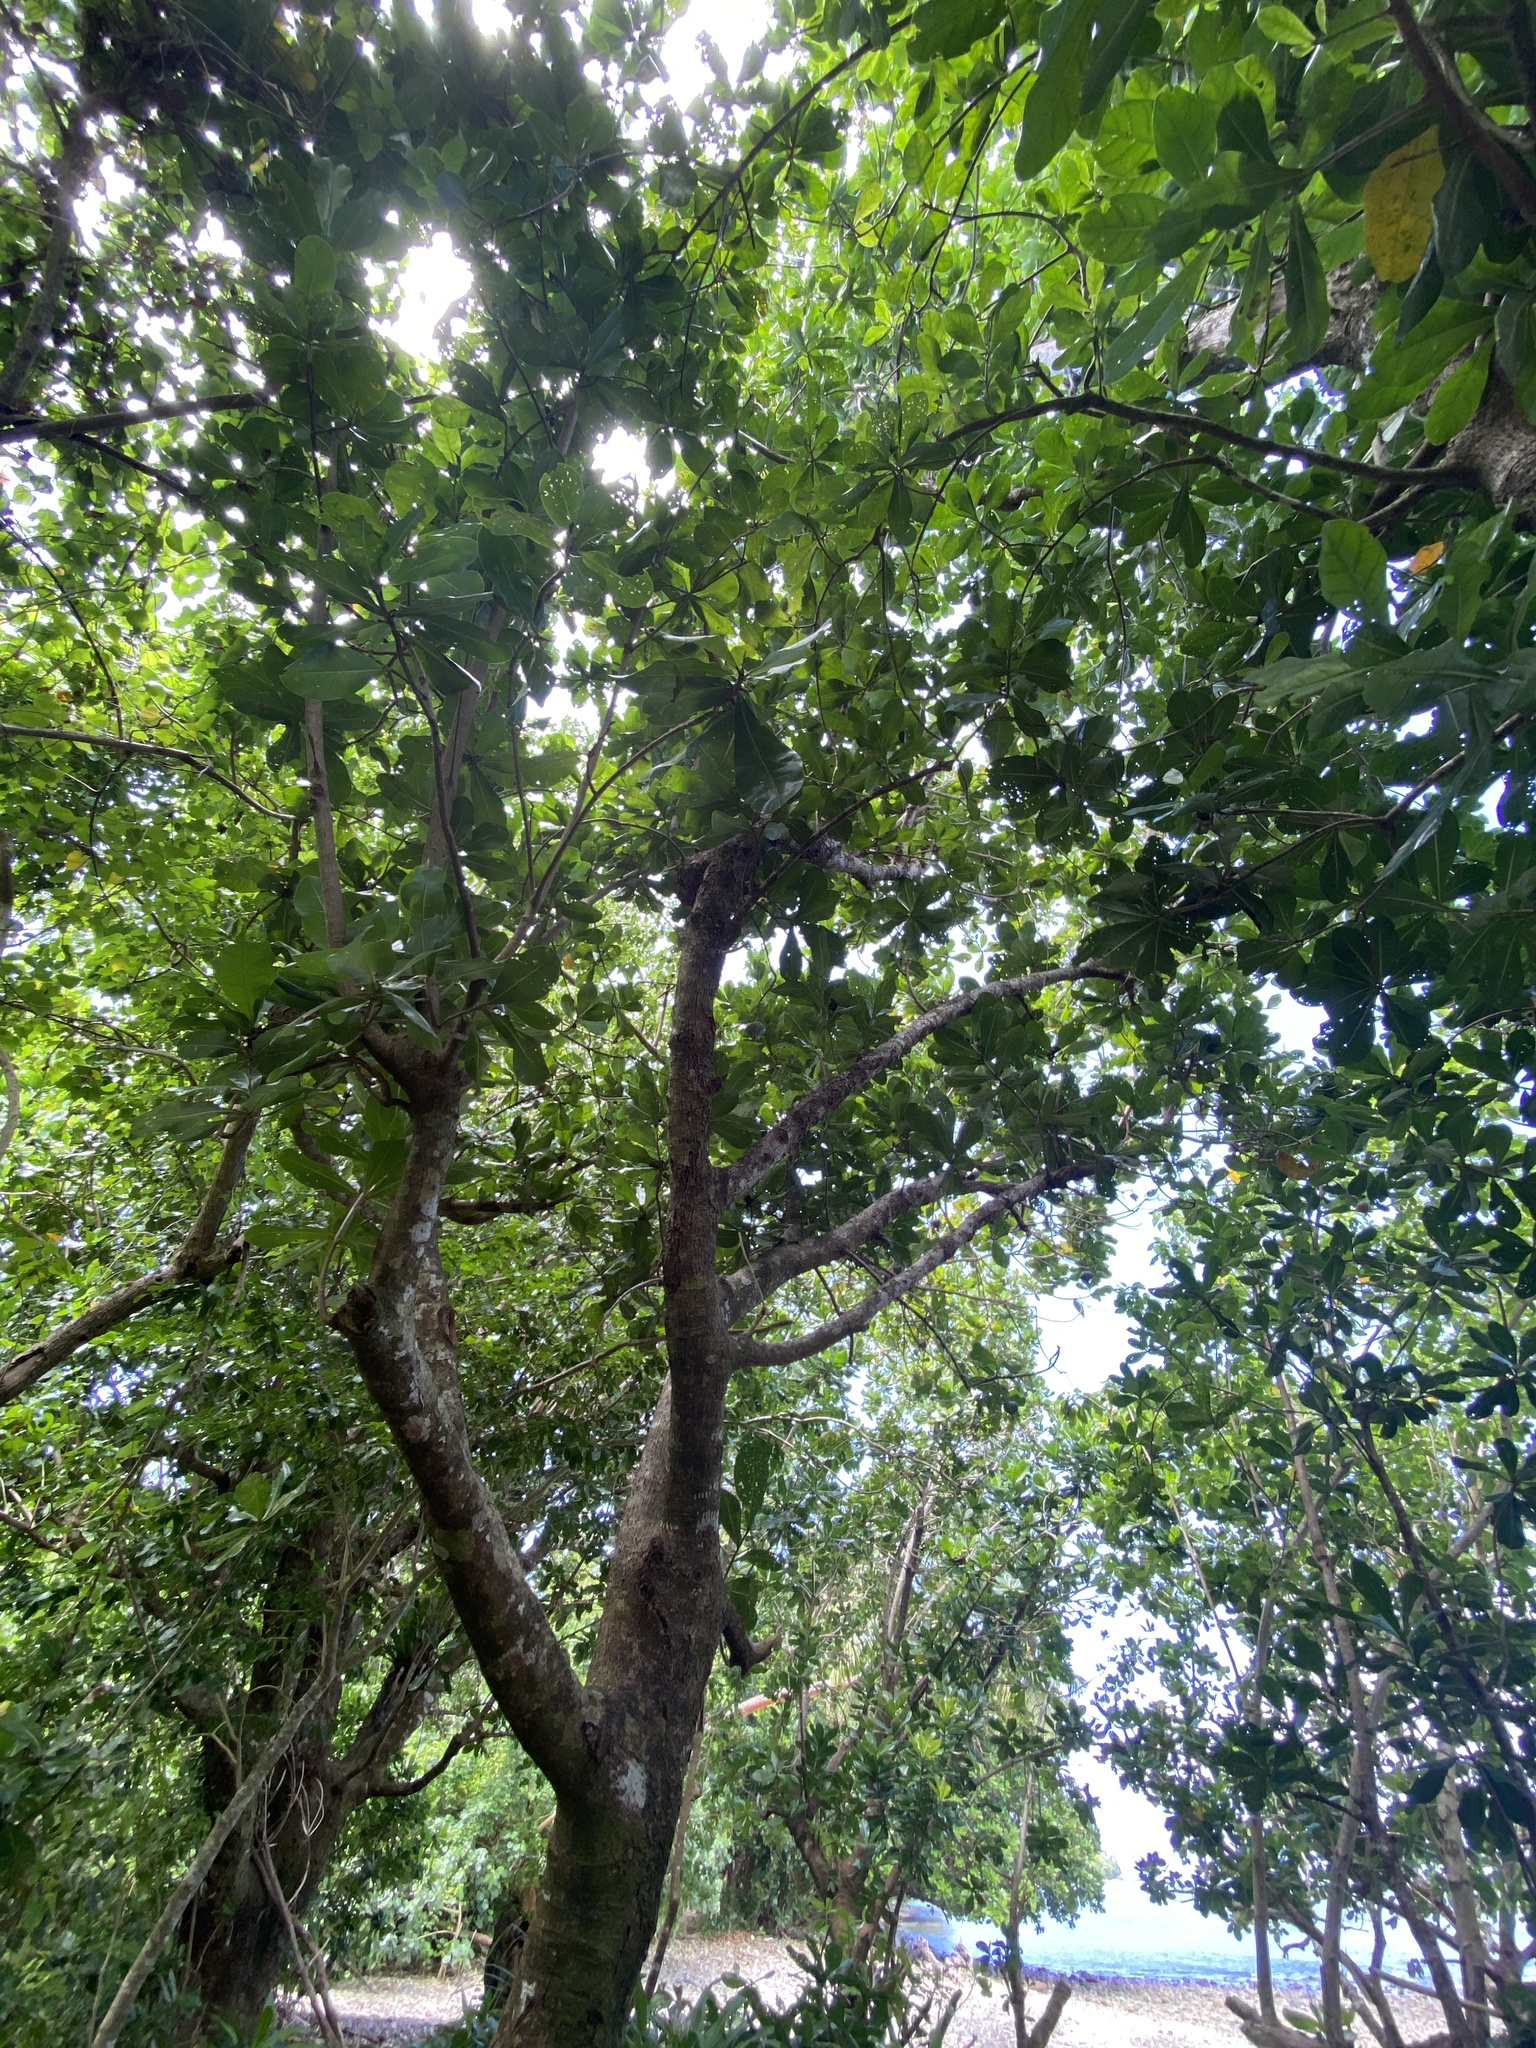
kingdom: Plantae
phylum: Tracheophyta
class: Magnoliopsida
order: Ericales
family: Lecythidaceae
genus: Barringtonia
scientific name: Barringtonia asiatica
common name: Mango-pine
